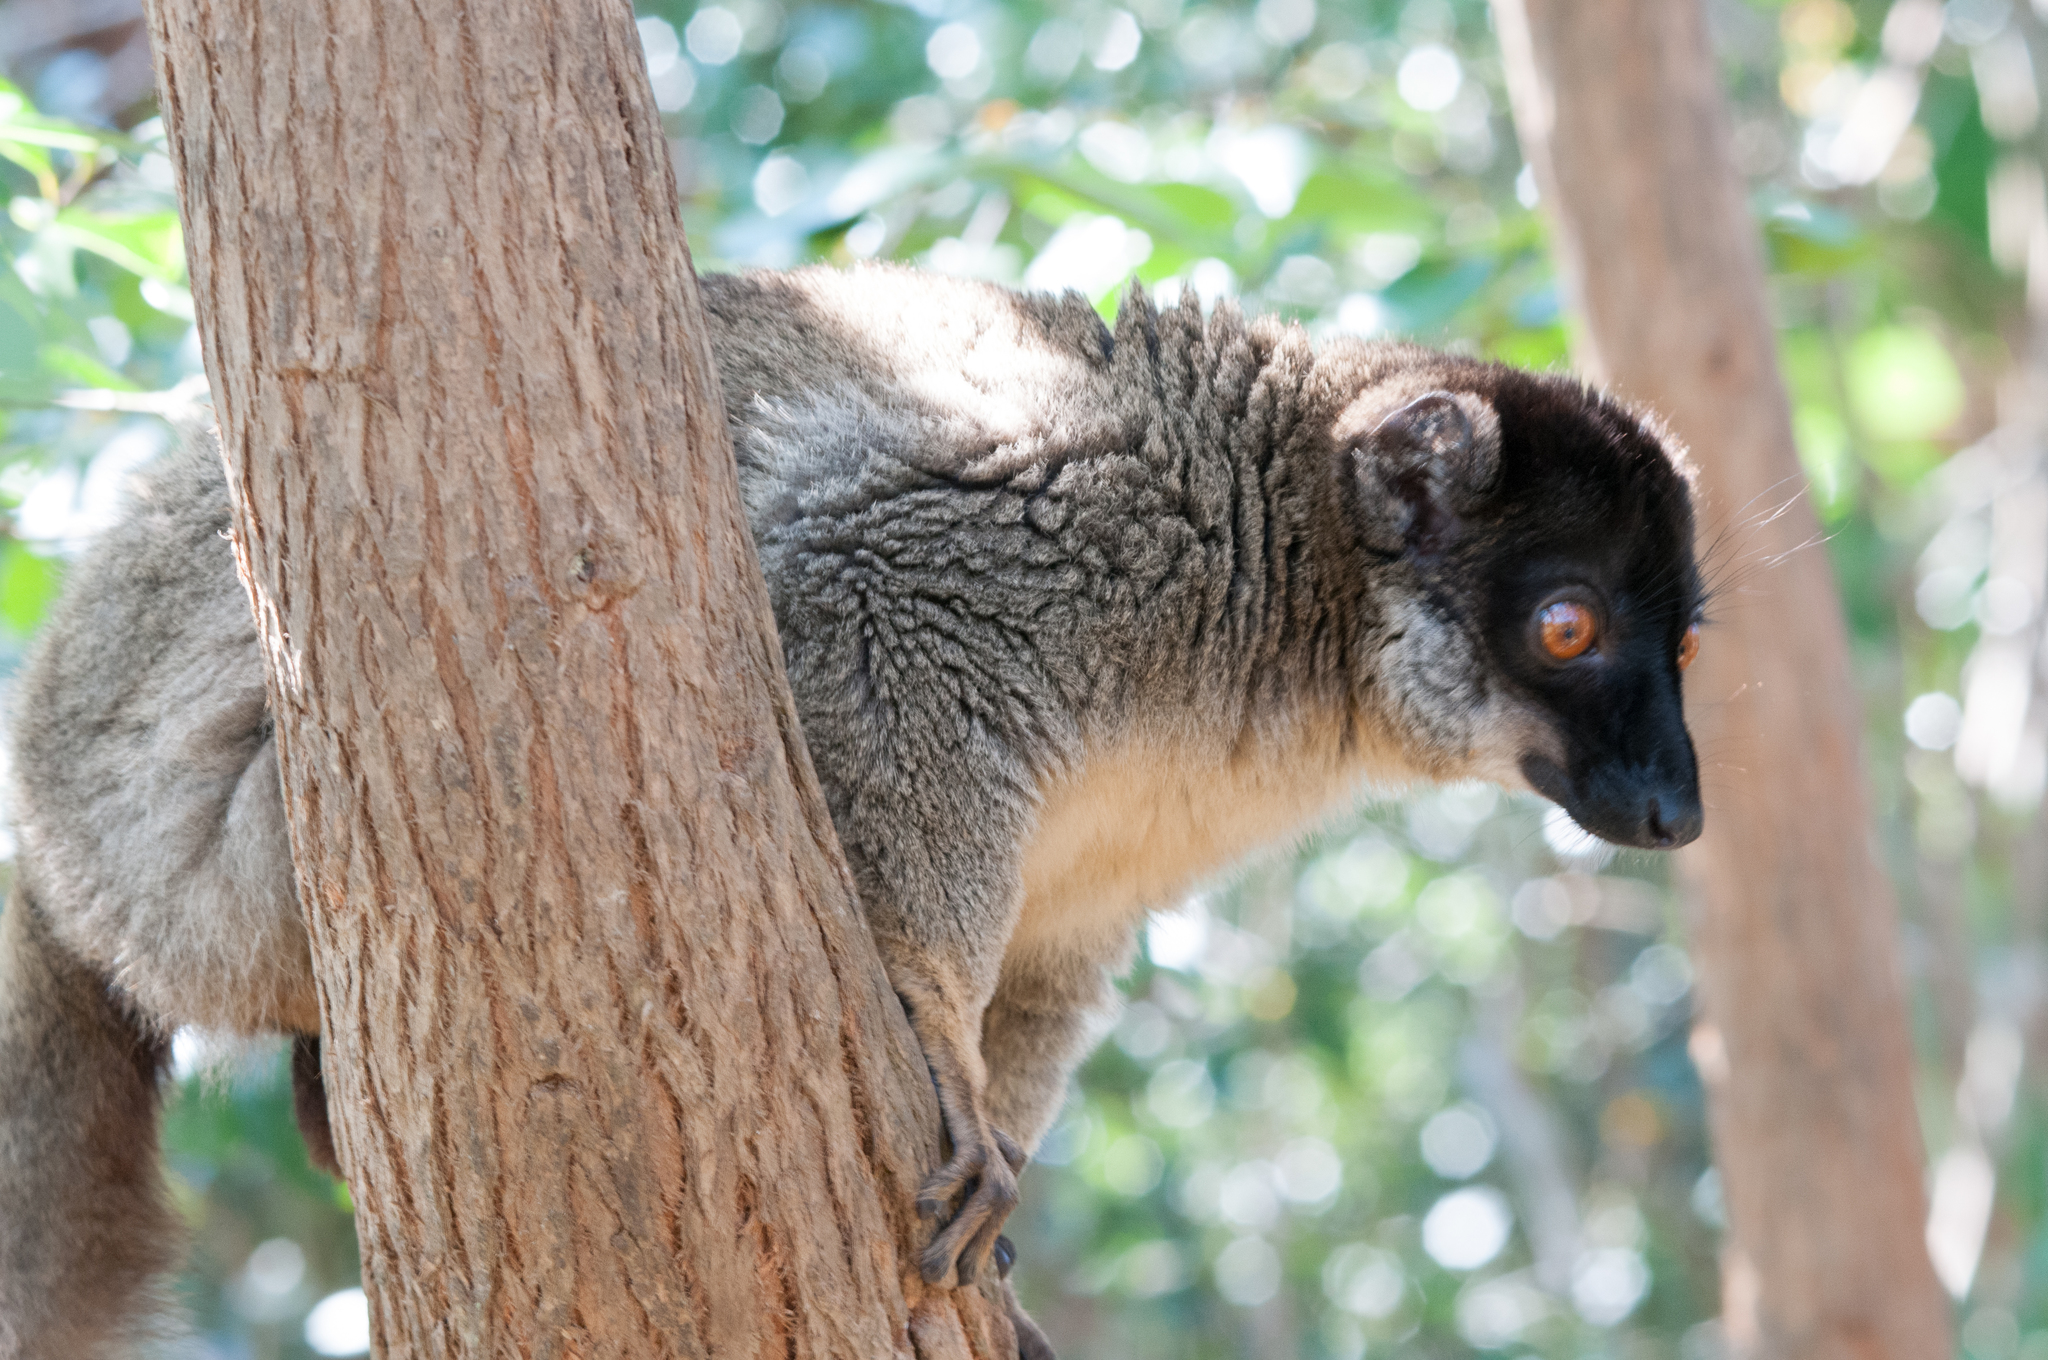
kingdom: Animalia
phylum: Chordata
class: Mammalia
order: Primates
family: Lemuridae
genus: Eulemur
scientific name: Eulemur fulvus
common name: Brown lemur
